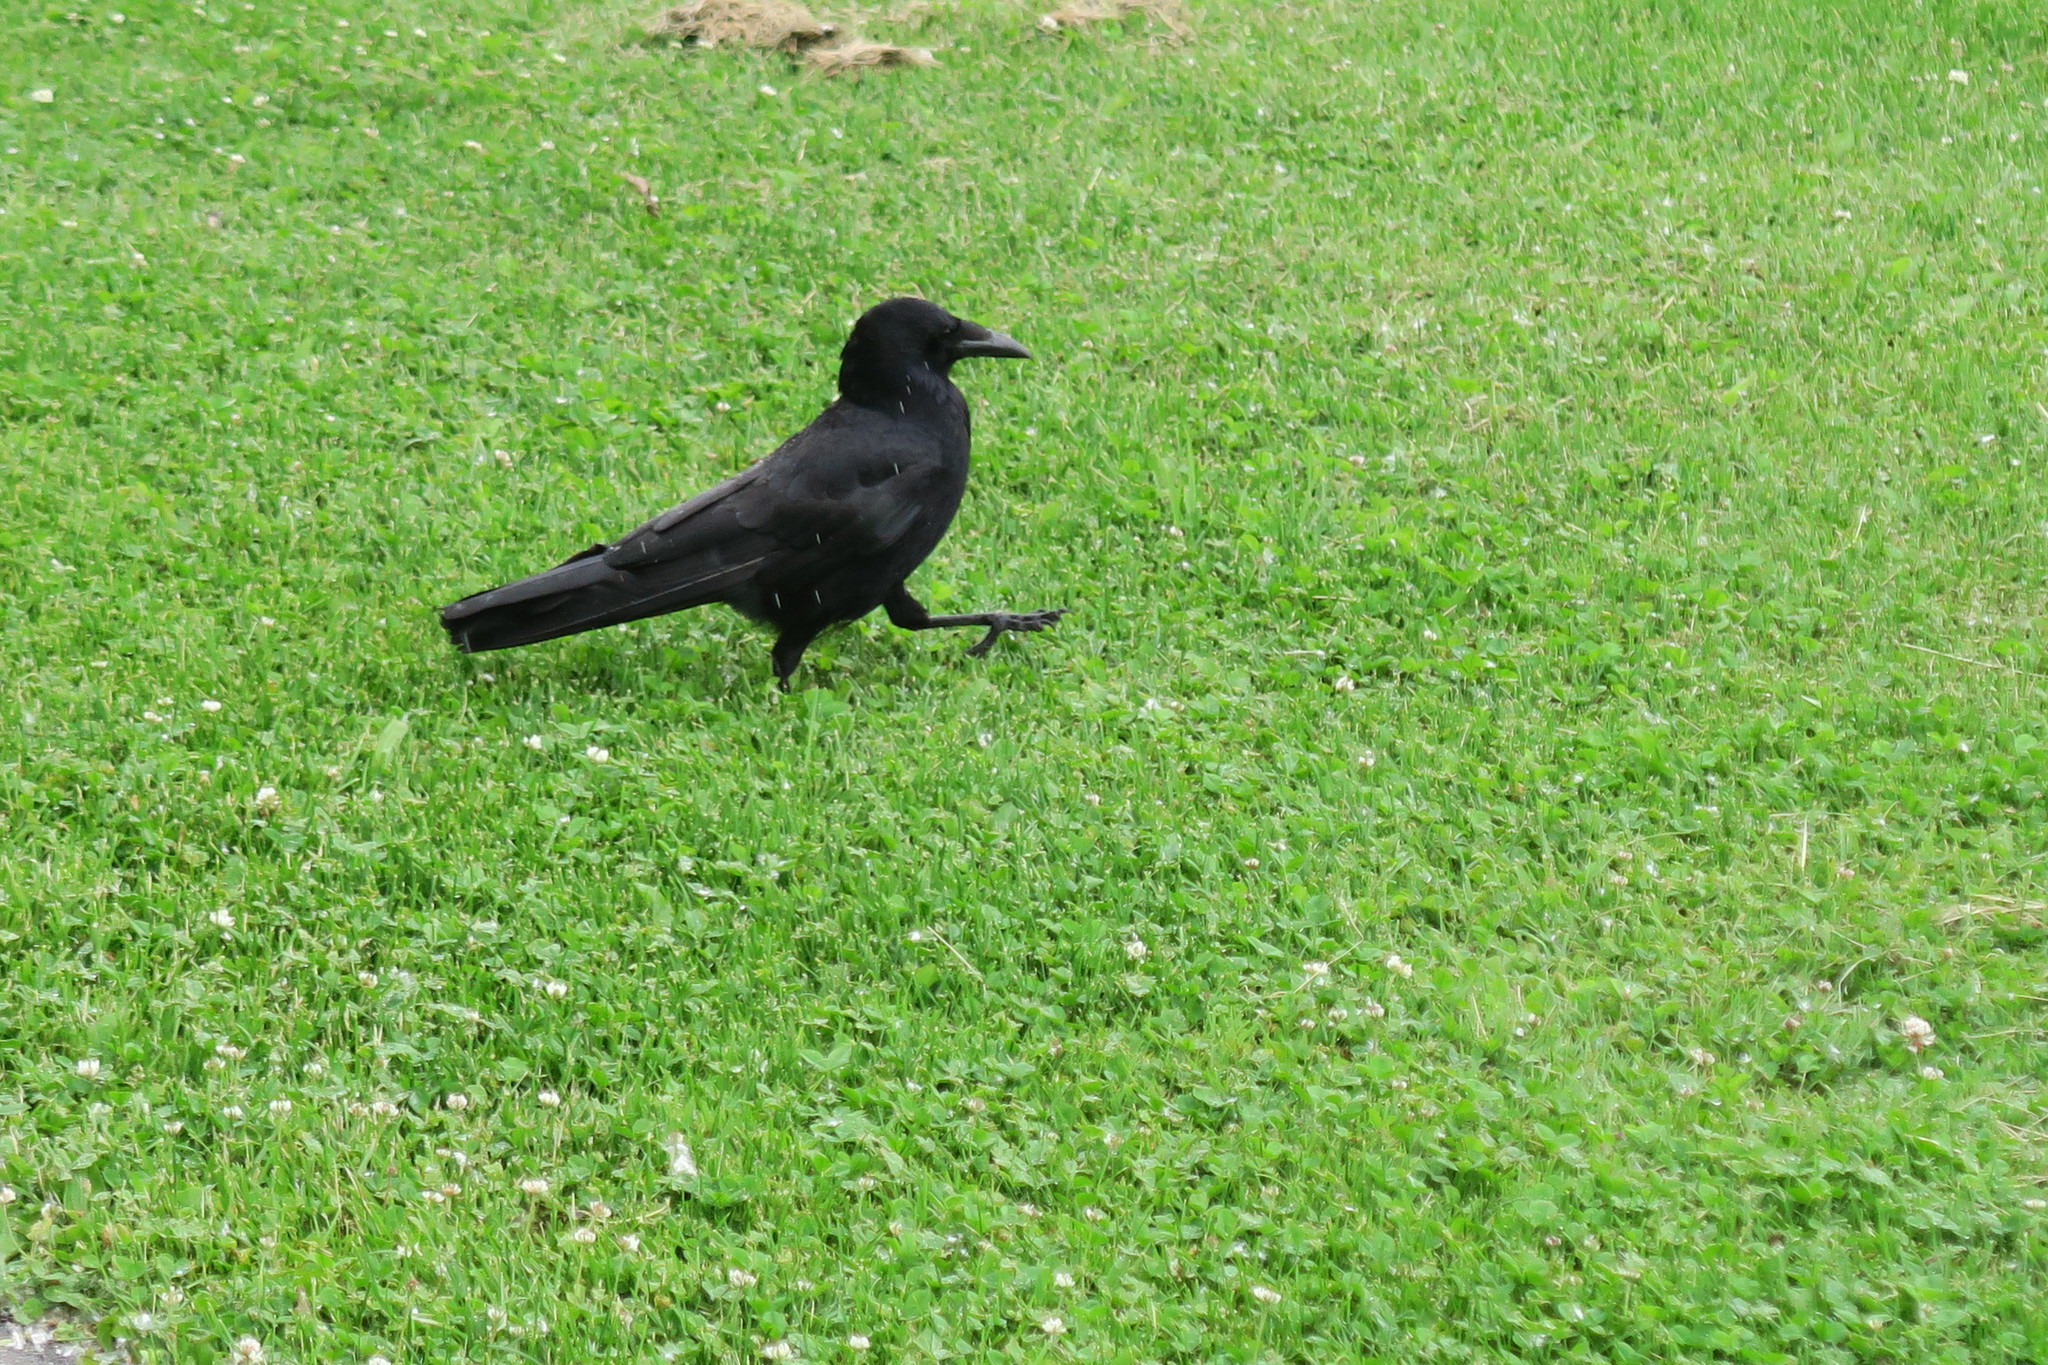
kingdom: Animalia
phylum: Chordata
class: Aves
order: Passeriformes
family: Corvidae
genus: Corvus
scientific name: Corvus corone
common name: Carrion crow
